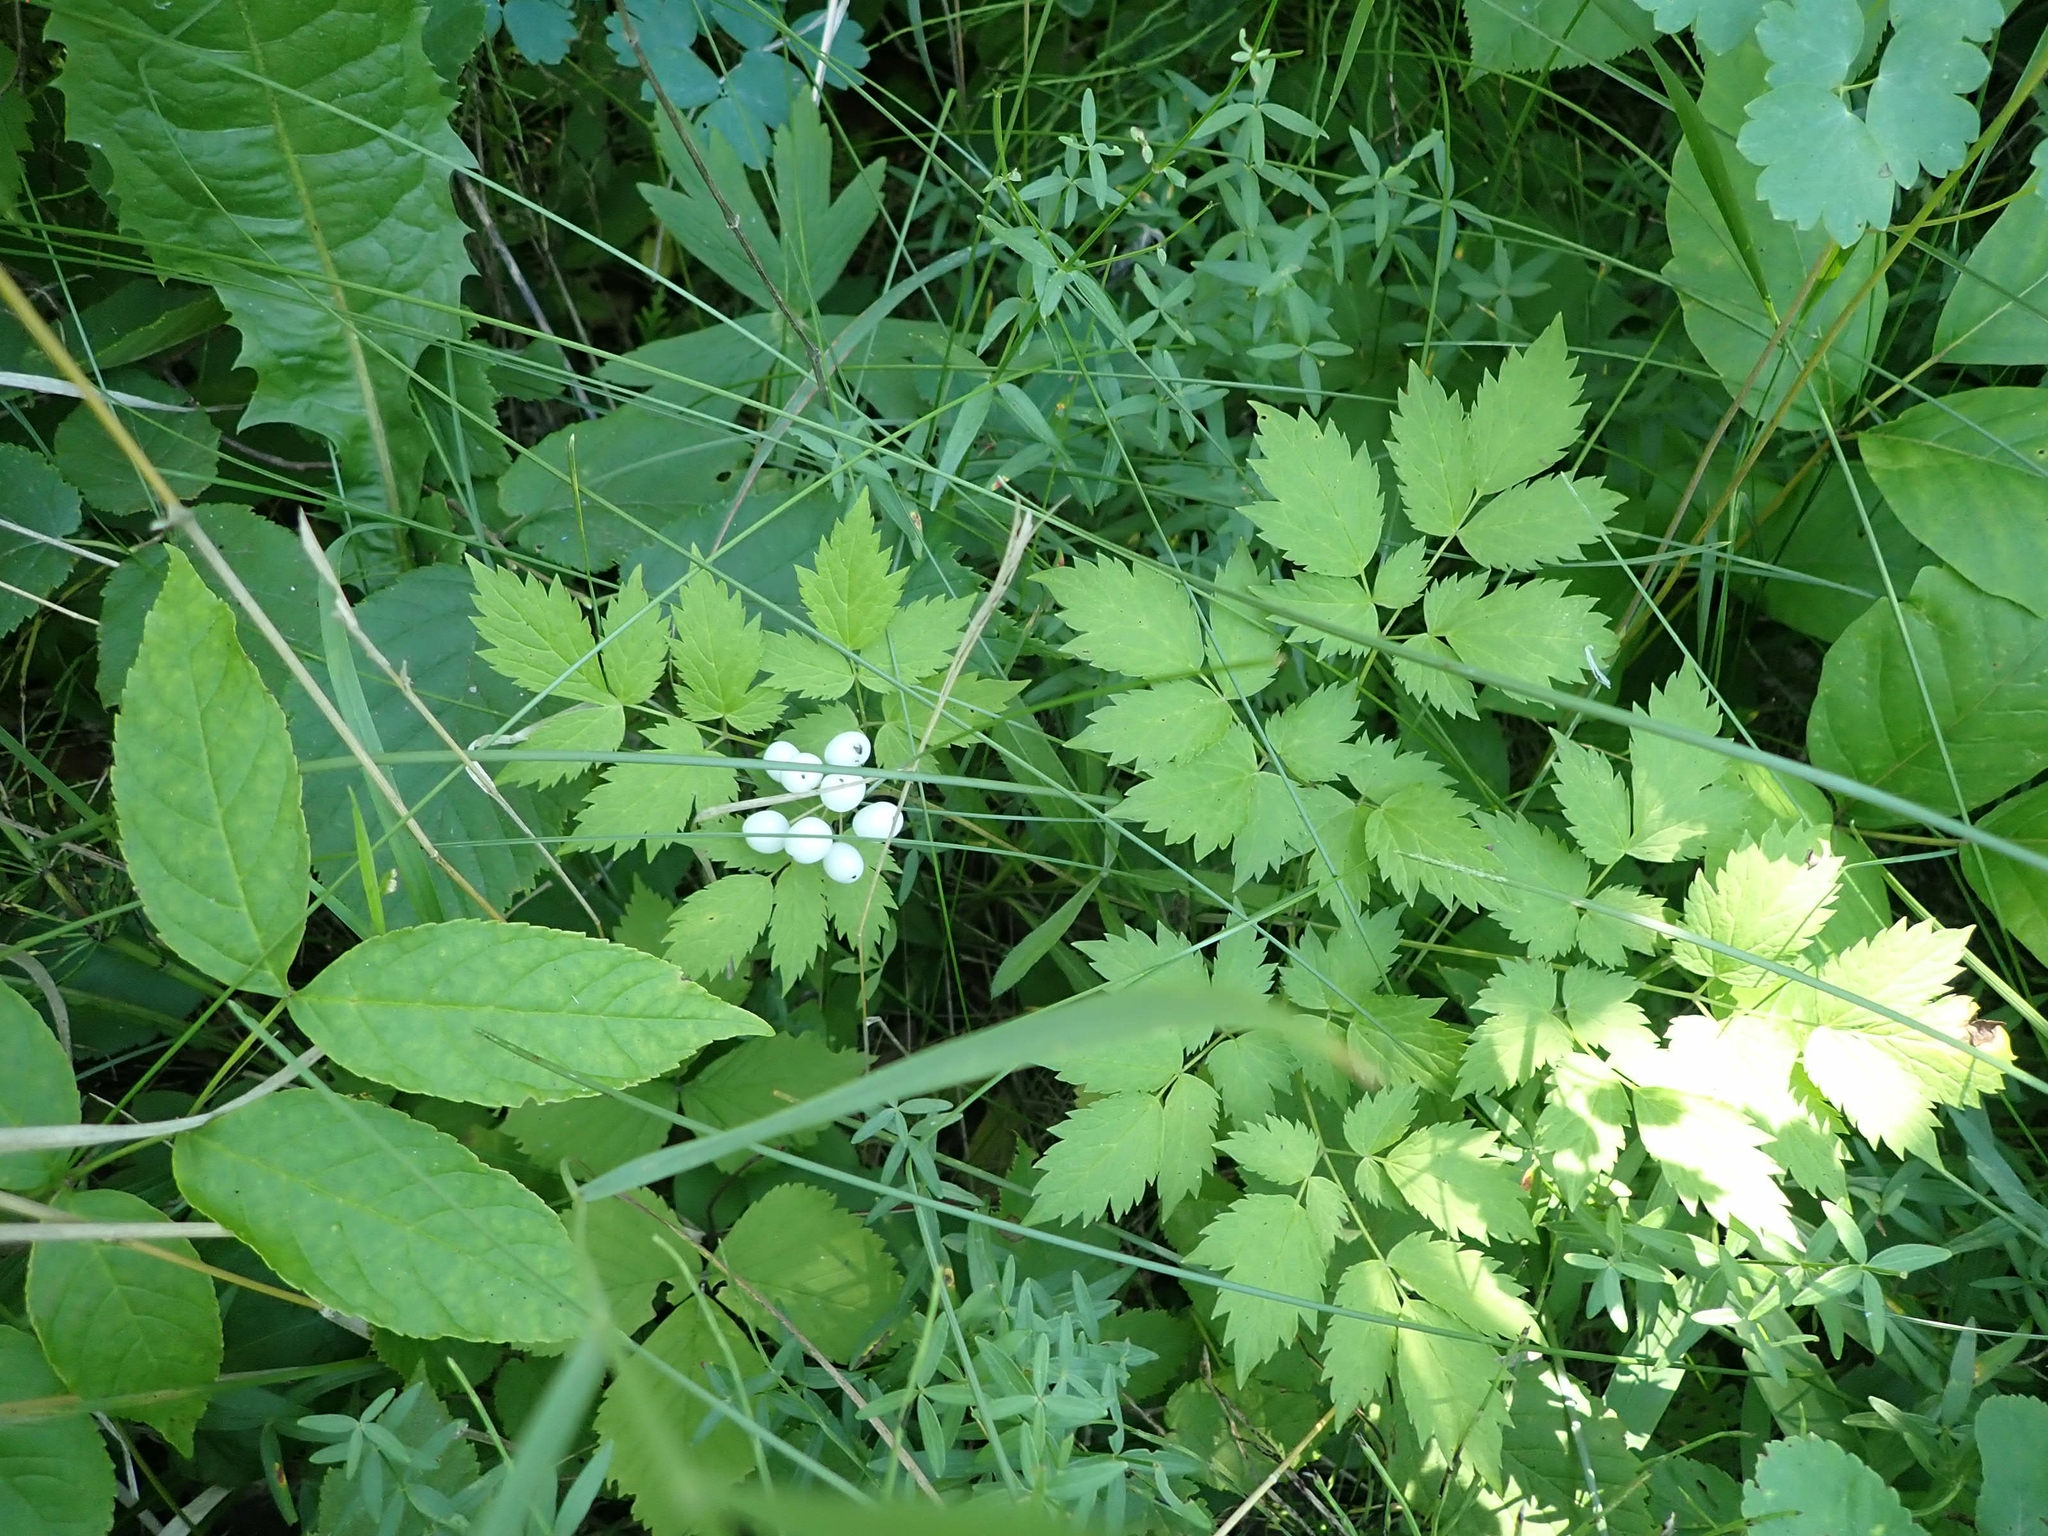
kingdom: Plantae
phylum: Tracheophyta
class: Magnoliopsida
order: Ranunculales
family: Ranunculaceae
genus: Actaea
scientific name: Actaea rubra
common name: Red baneberry
